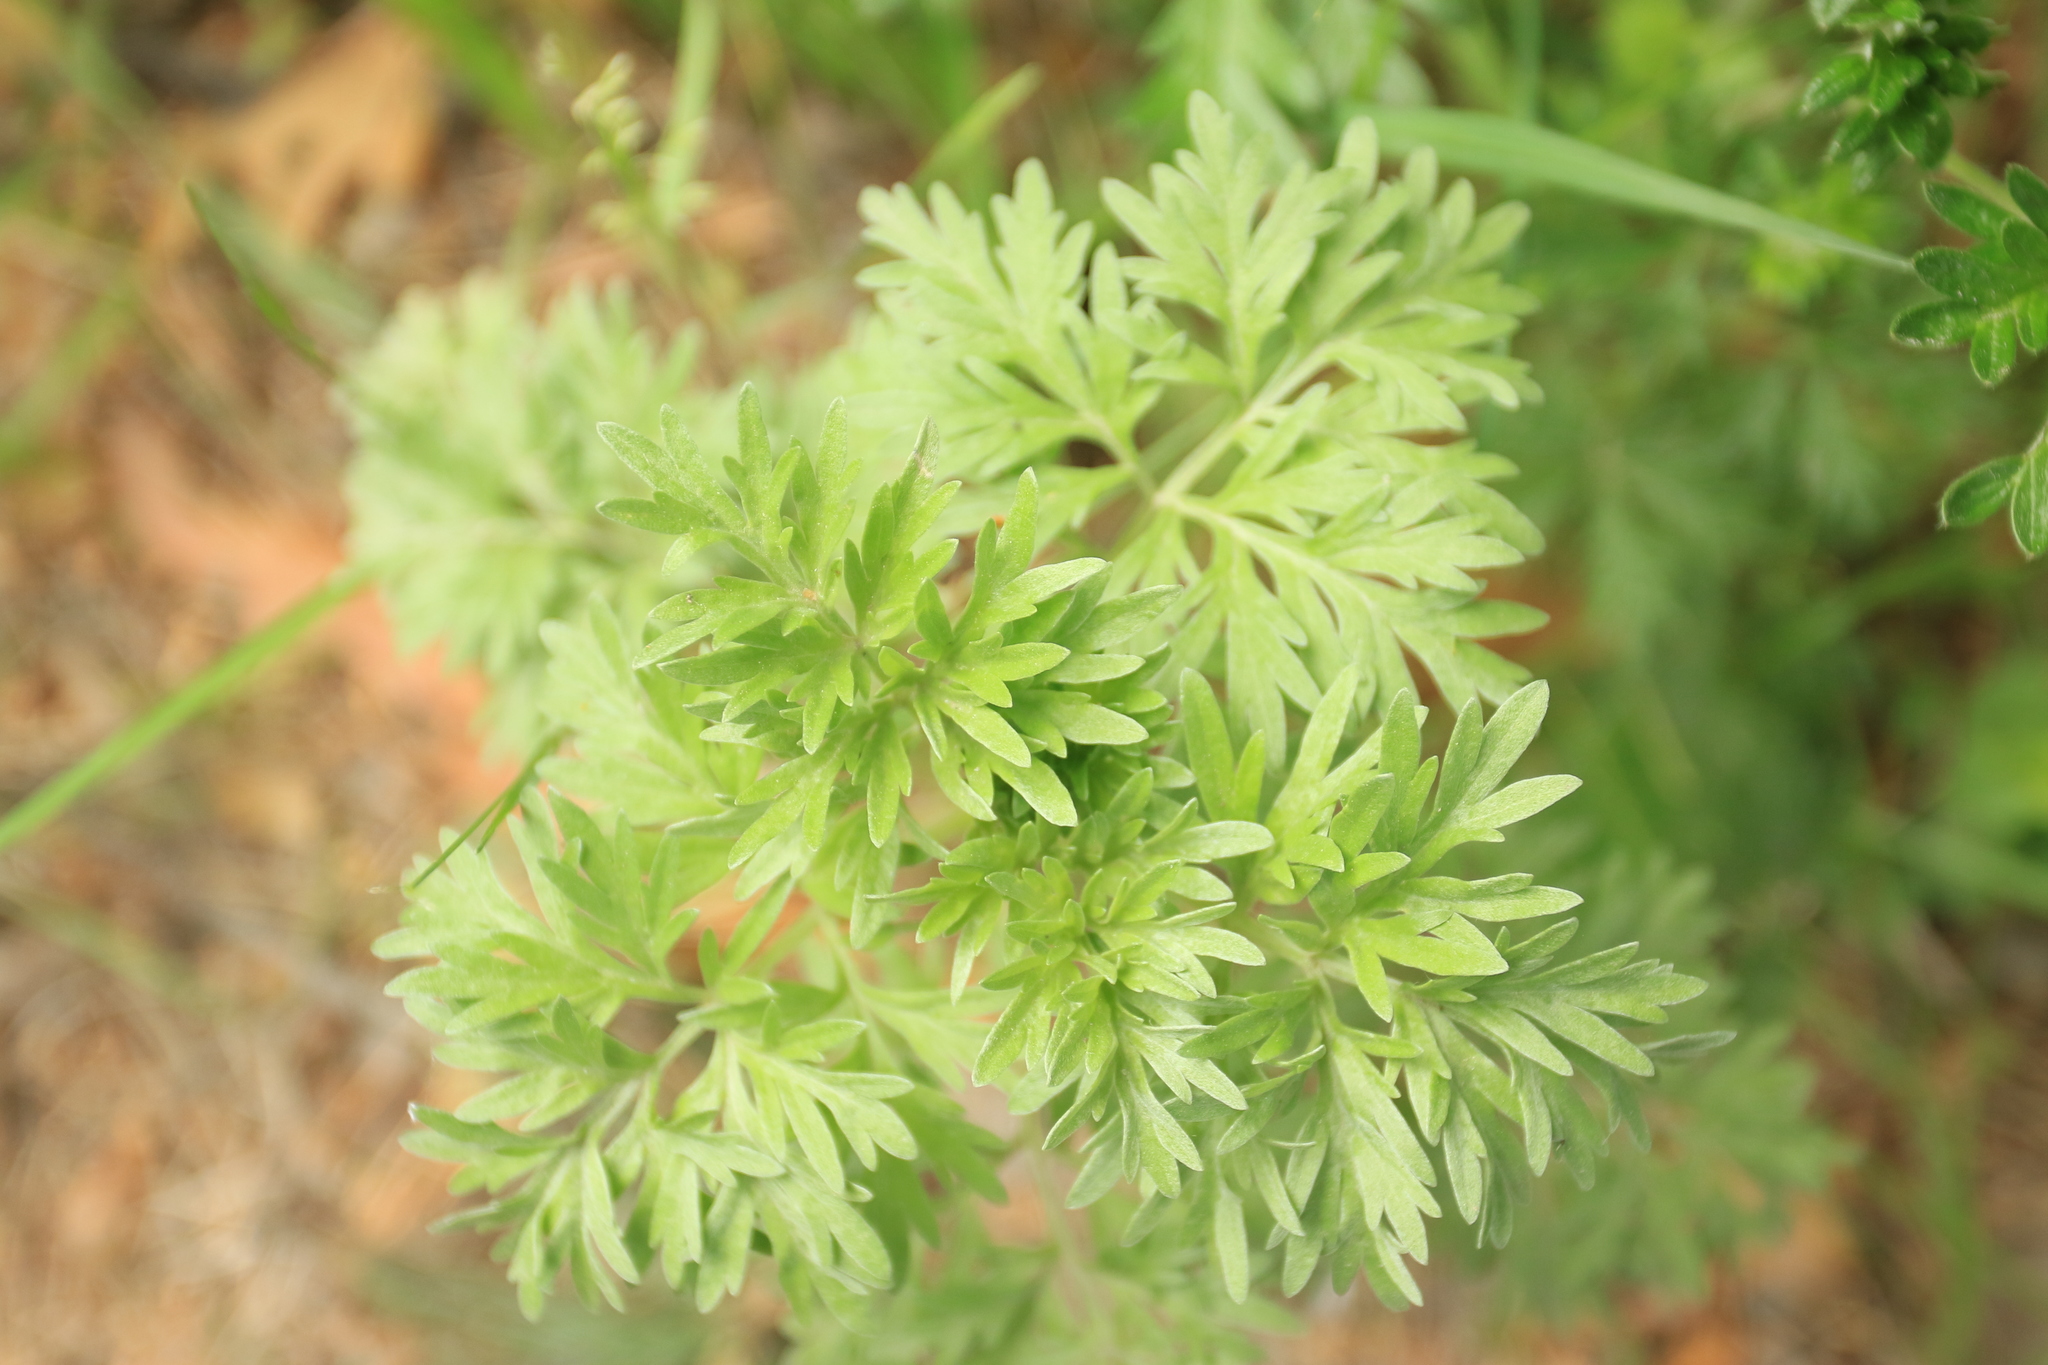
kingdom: Plantae
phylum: Tracheophyta
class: Magnoliopsida
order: Asterales
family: Asteraceae
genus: Artemisia
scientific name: Artemisia absinthium
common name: Wormwood
